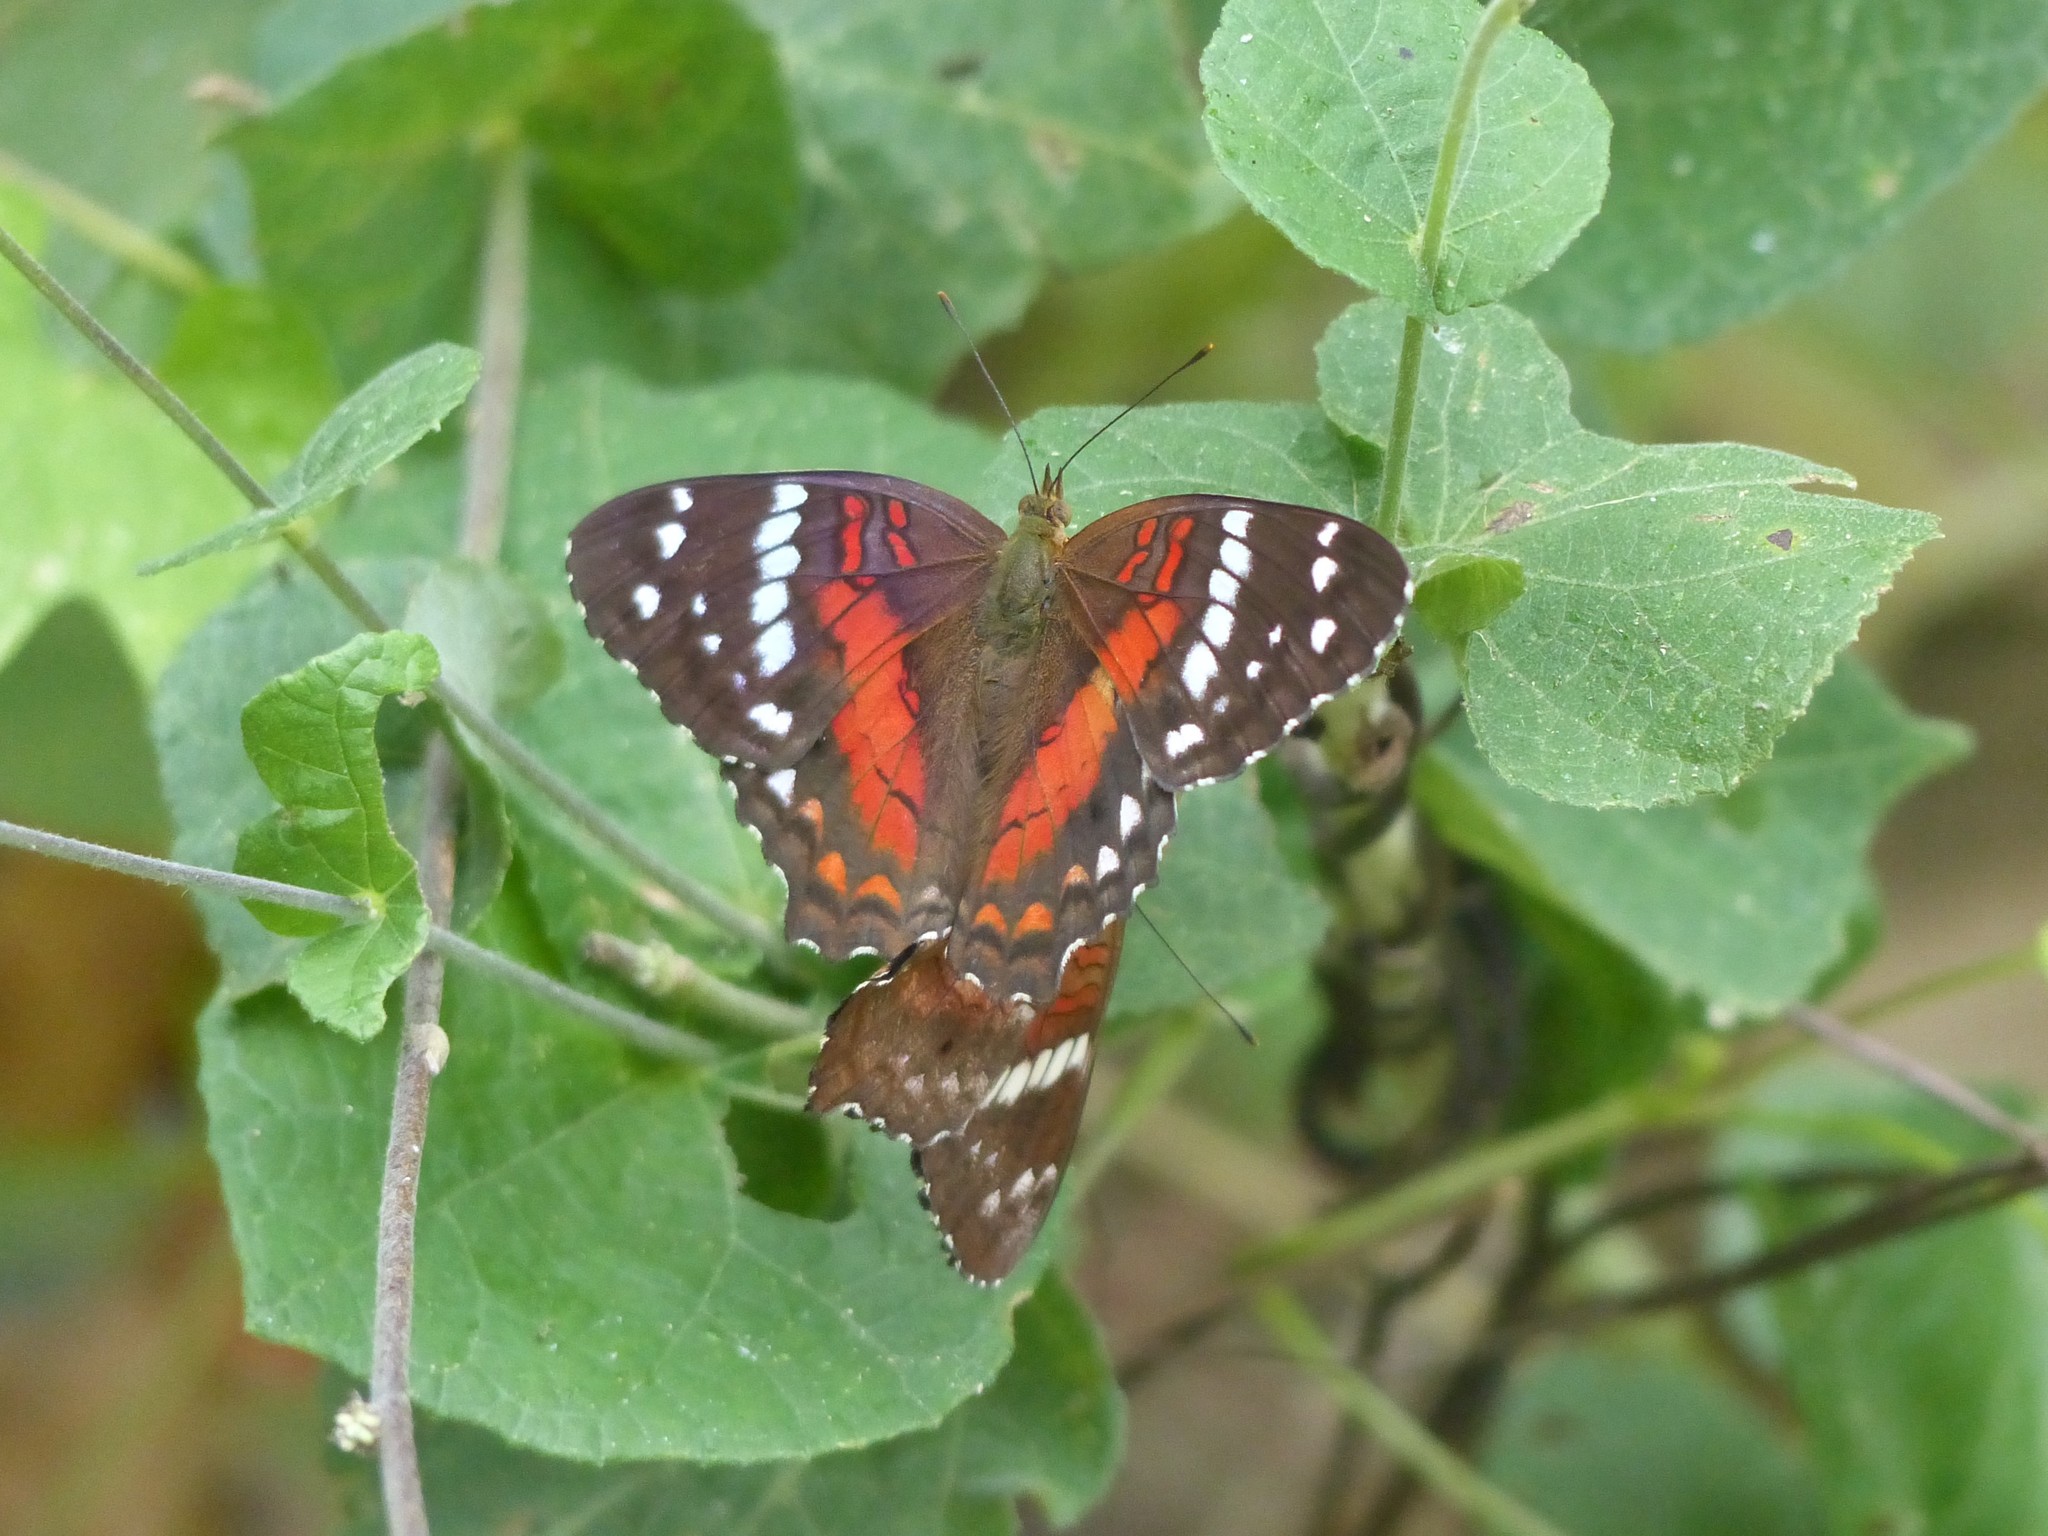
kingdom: Animalia
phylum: Arthropoda
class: Insecta
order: Lepidoptera
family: Nymphalidae
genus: Anartia
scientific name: Anartia amathea
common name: Red peacock
